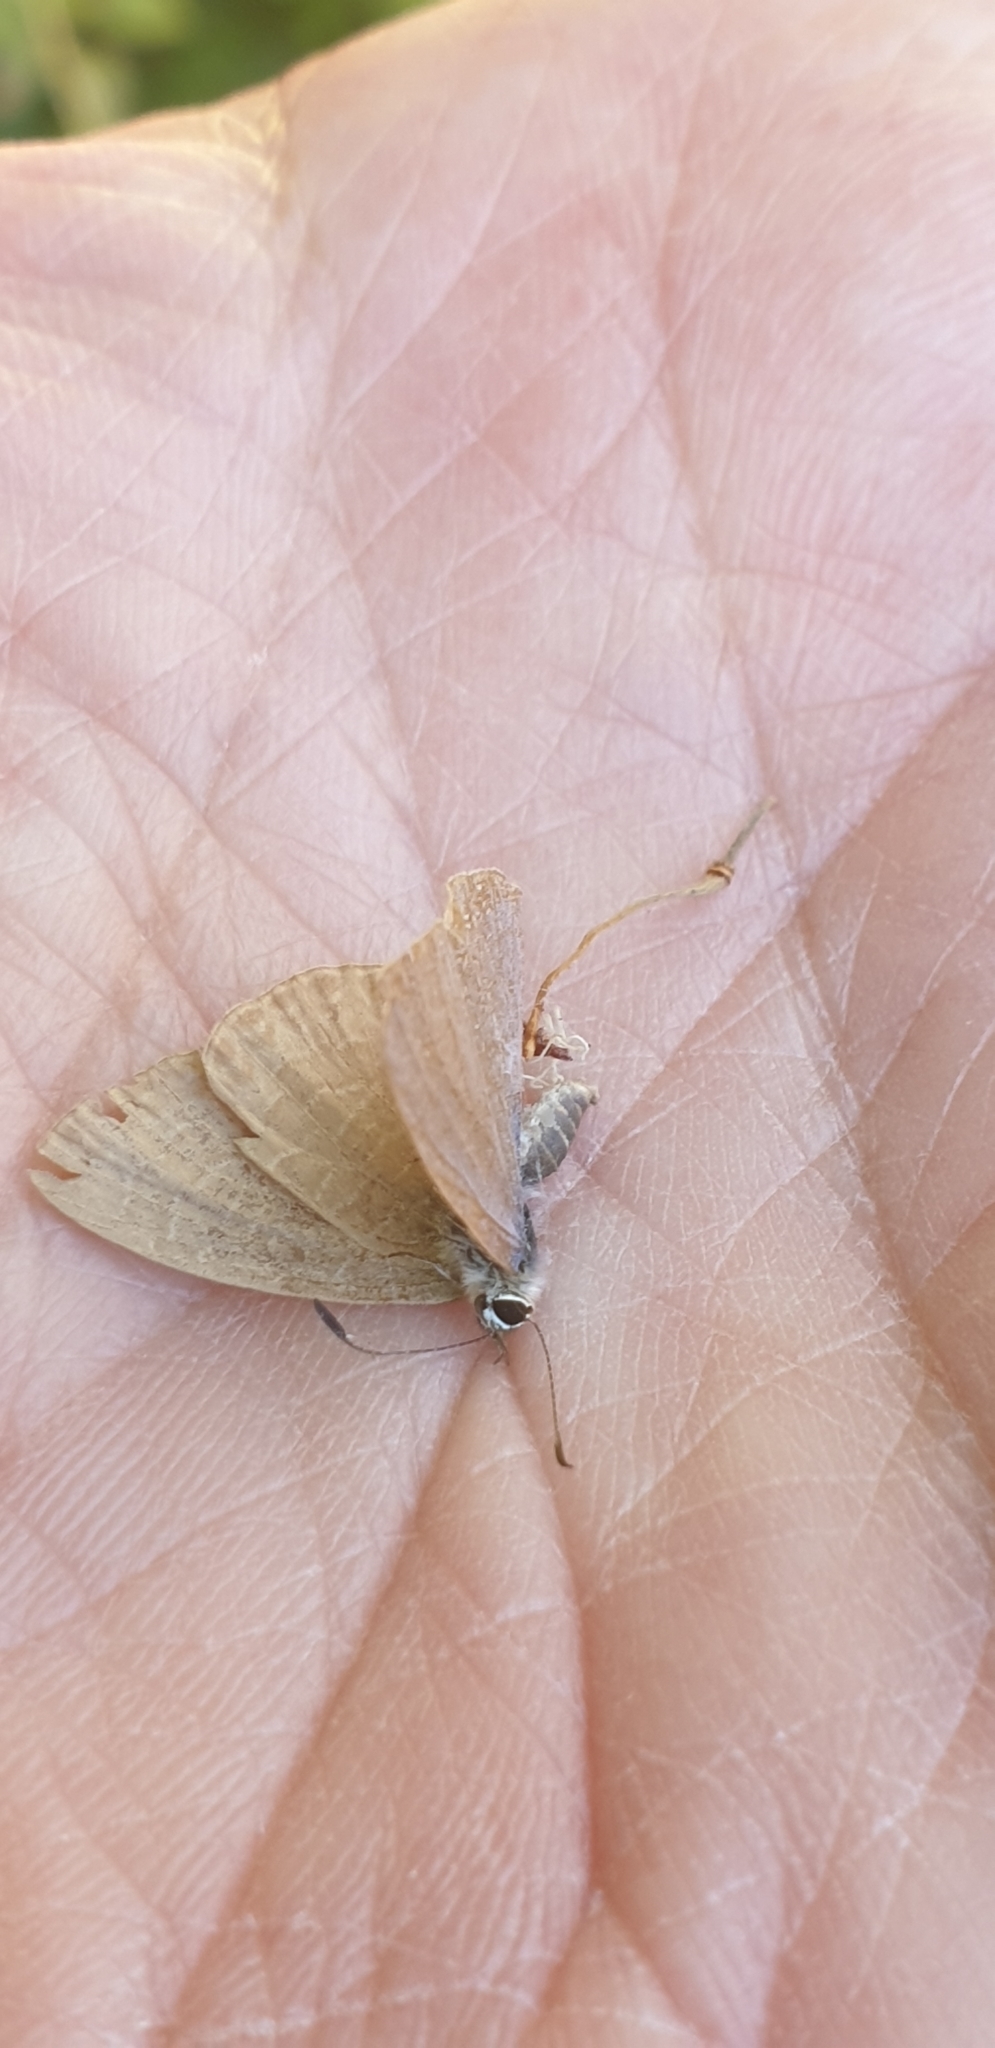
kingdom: Animalia
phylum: Arthropoda
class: Insecta
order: Lepidoptera
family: Lycaenidae
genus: Nacaduba
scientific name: Nacaduba berenice
